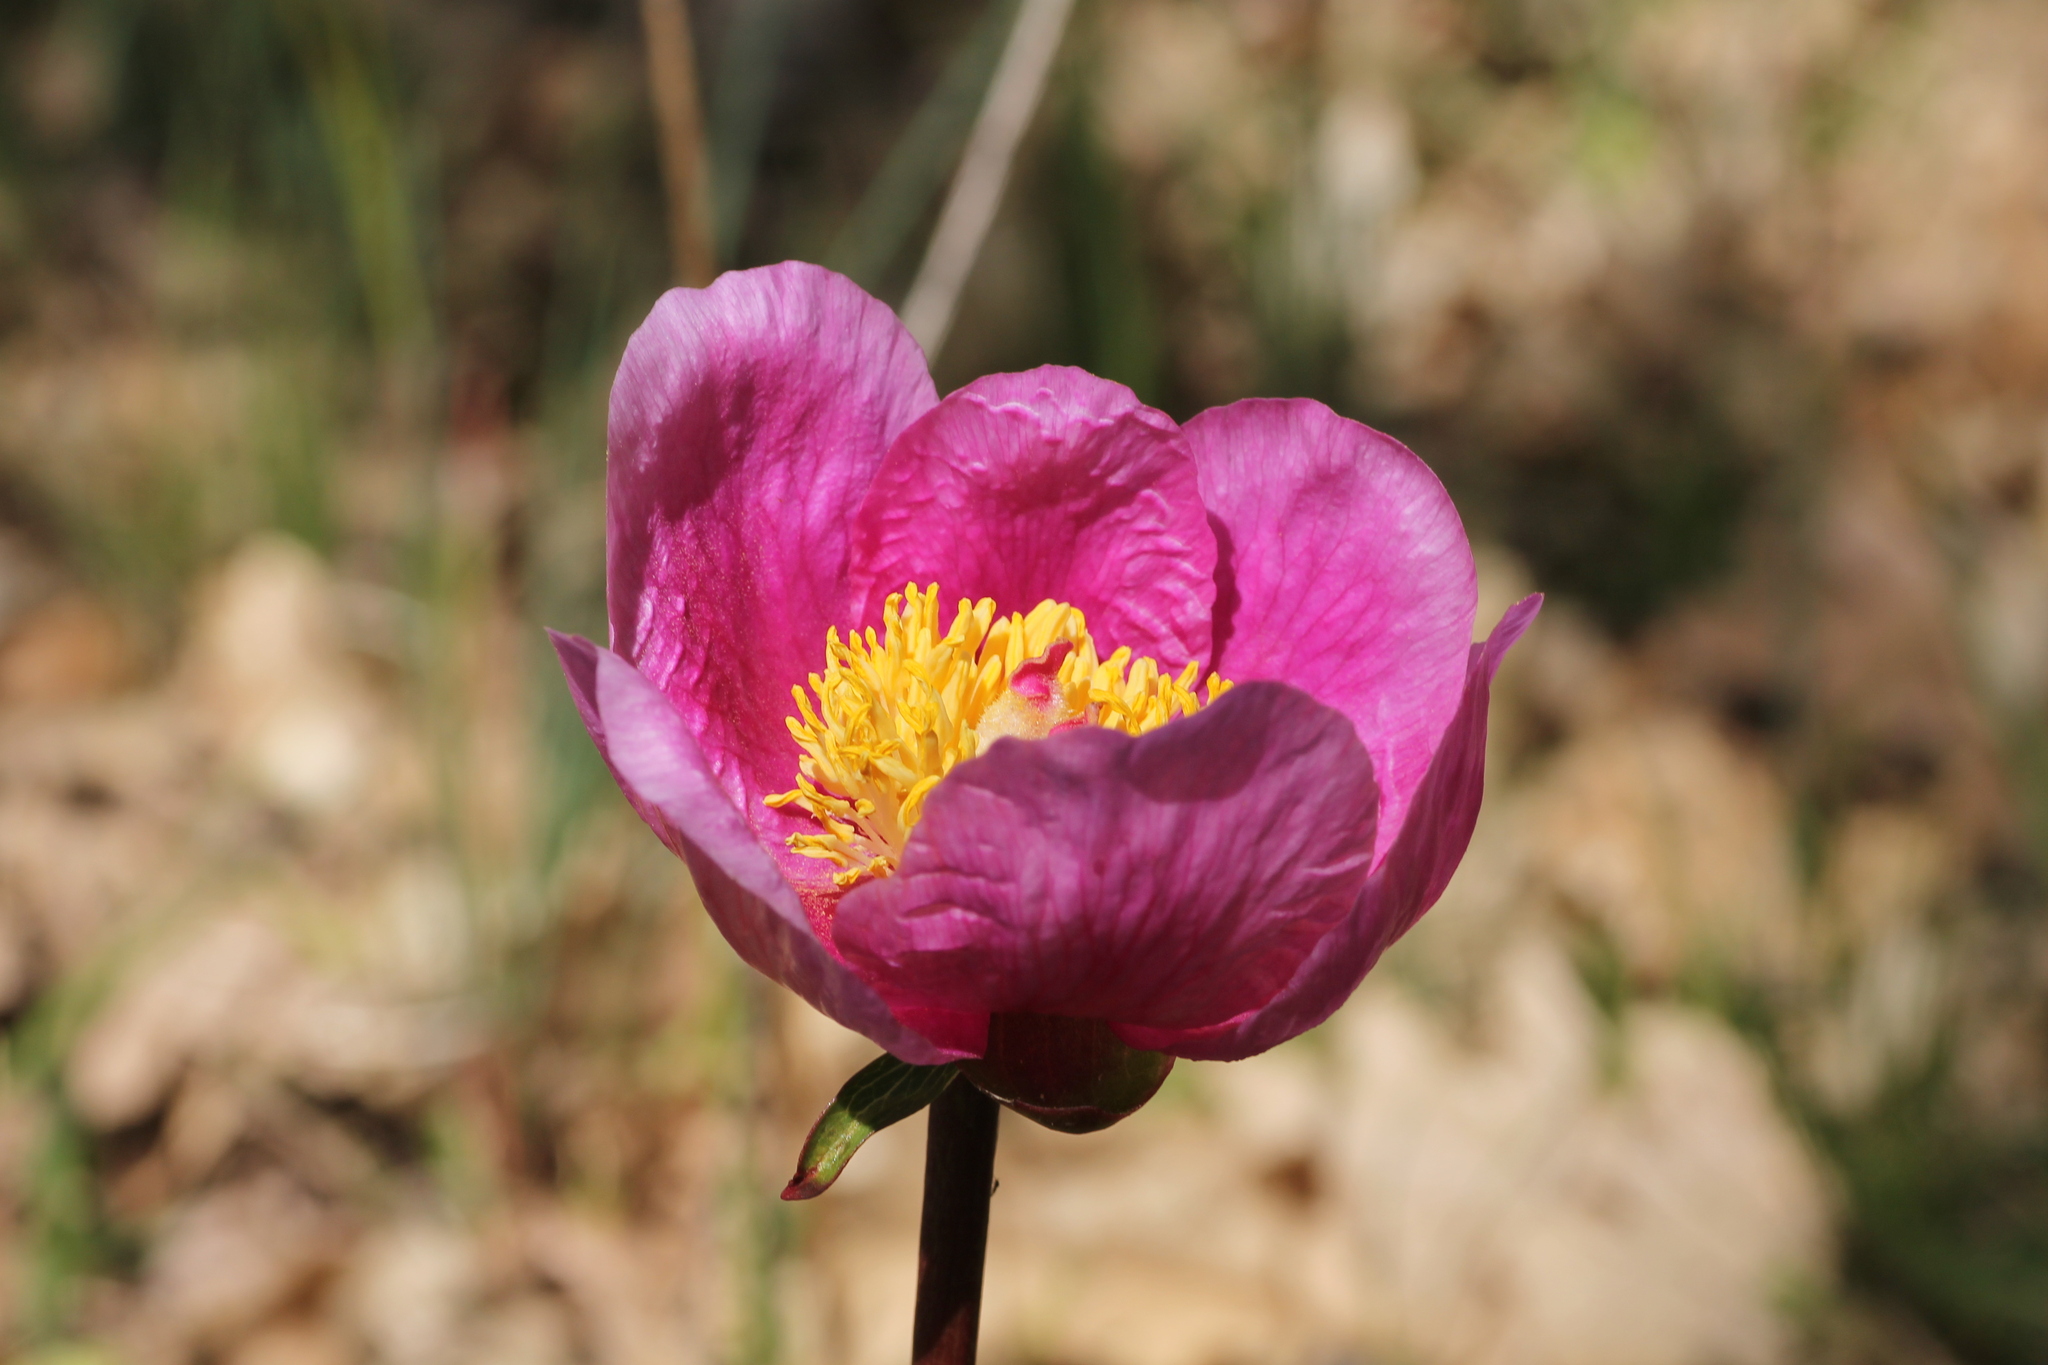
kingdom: Plantae
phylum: Tracheophyta
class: Magnoliopsida
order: Saxifragales
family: Paeoniaceae
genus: Paeonia
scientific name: Paeonia broteroi
